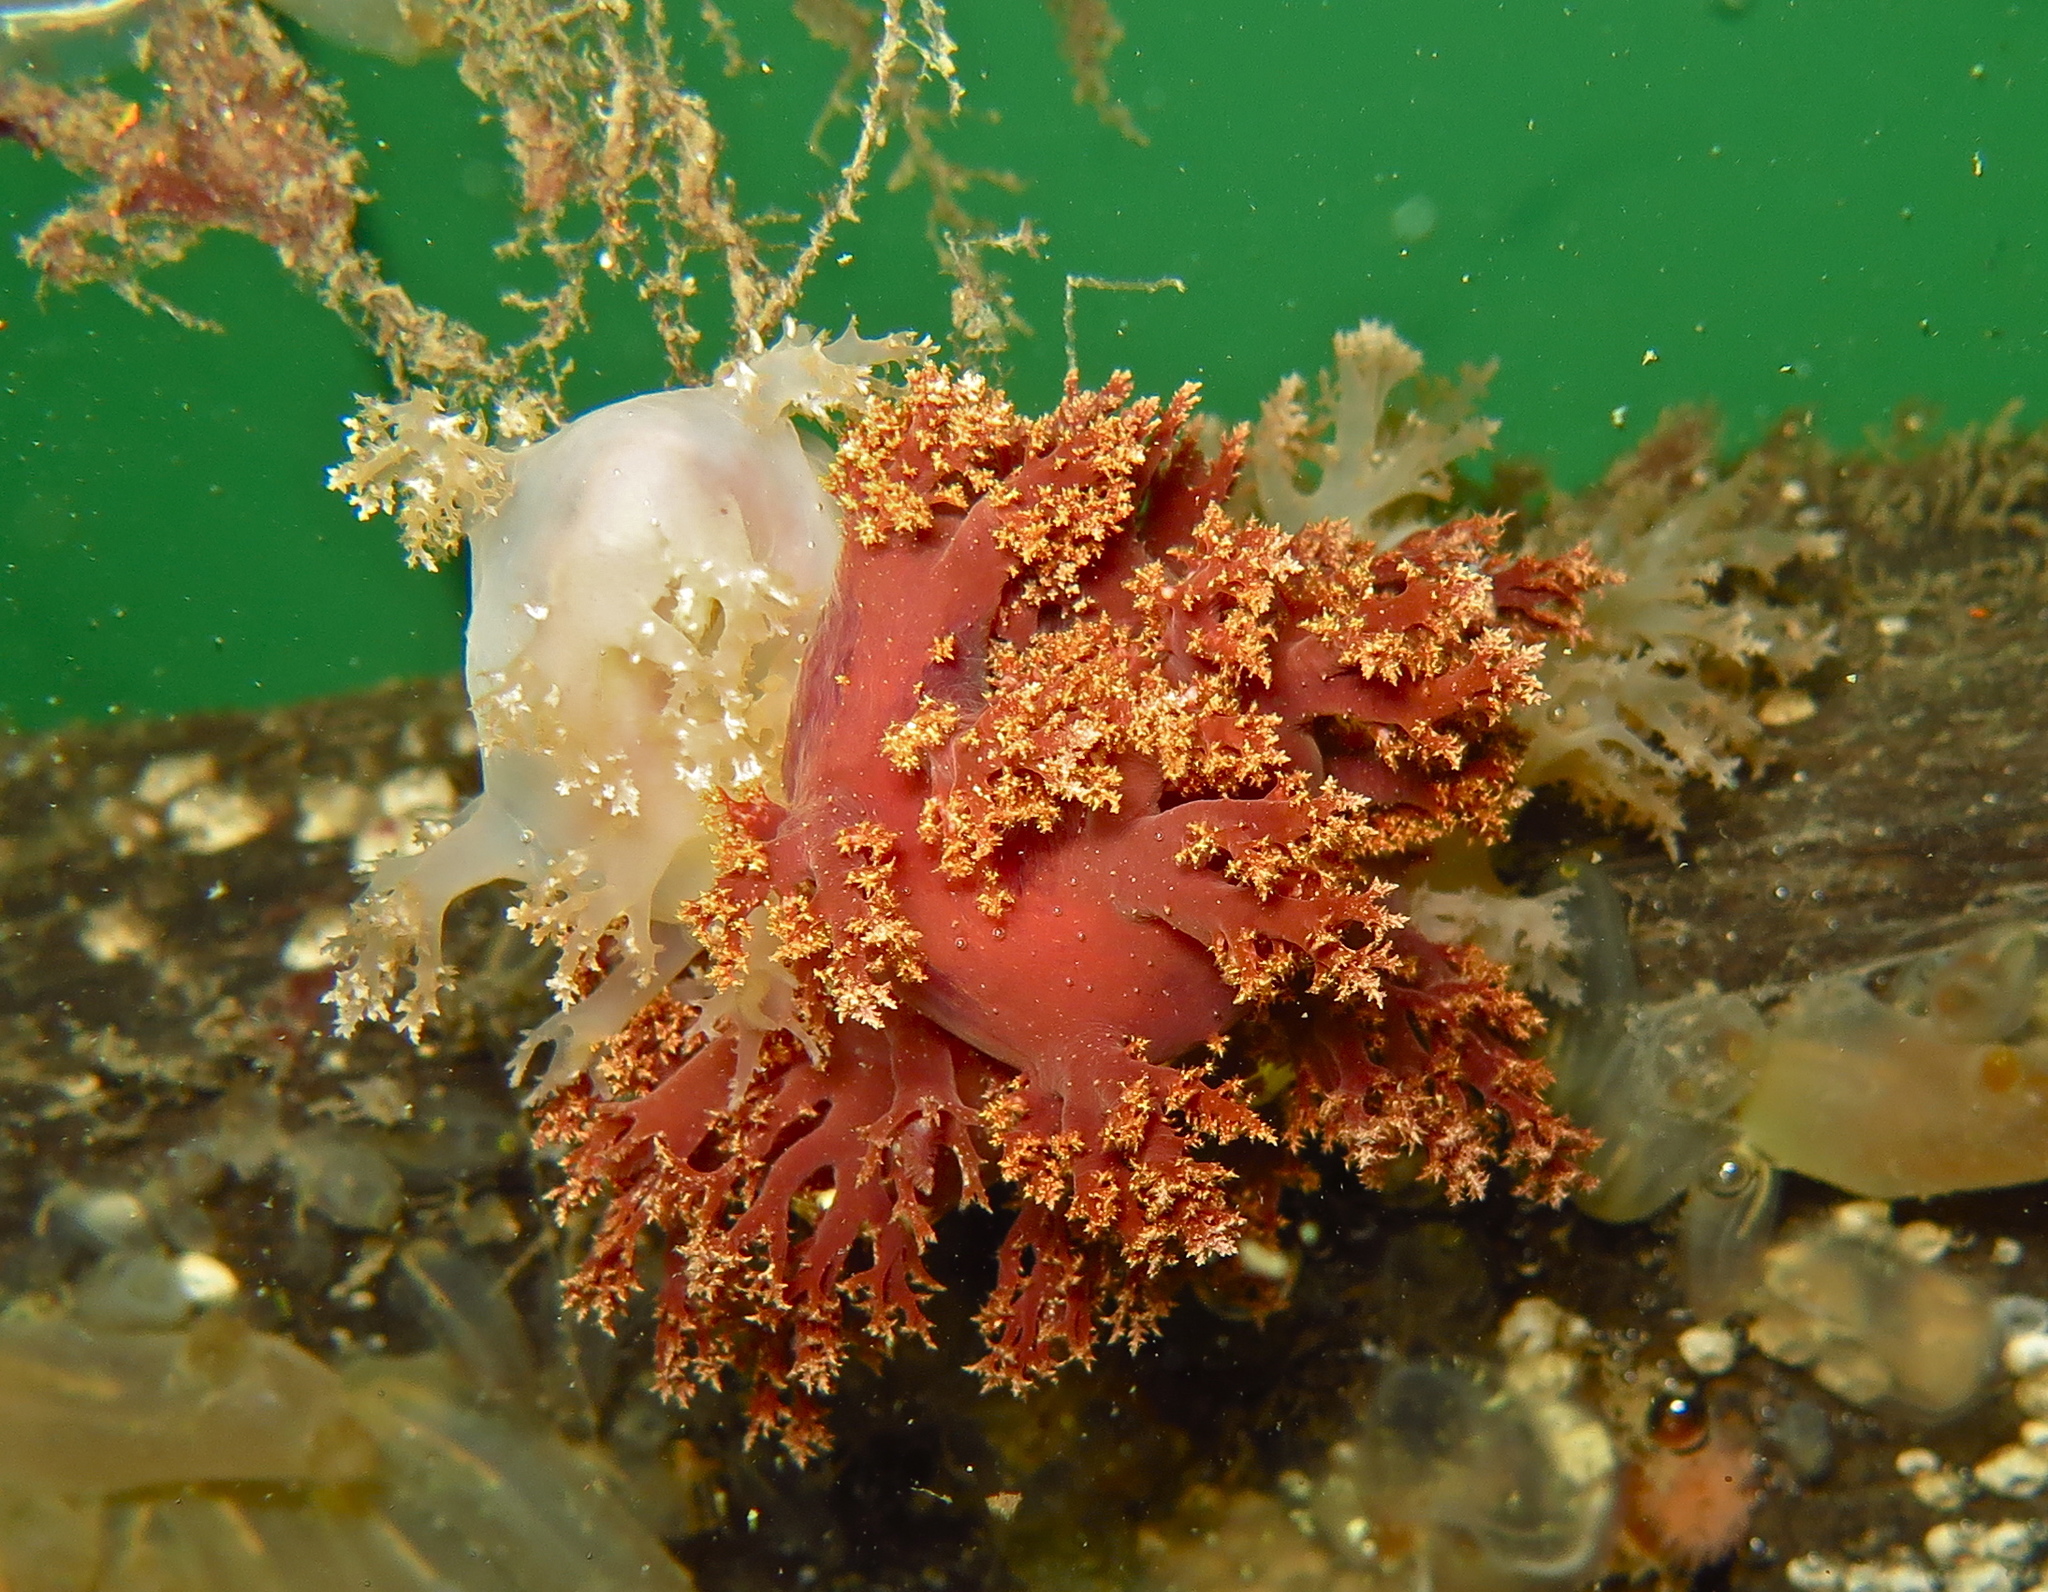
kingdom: Animalia
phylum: Mollusca
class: Gastropoda
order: Nudibranchia
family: Dendronotidae
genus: Dendronotus
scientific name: Dendronotus frondosus
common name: Bushy-backed nudibranch
